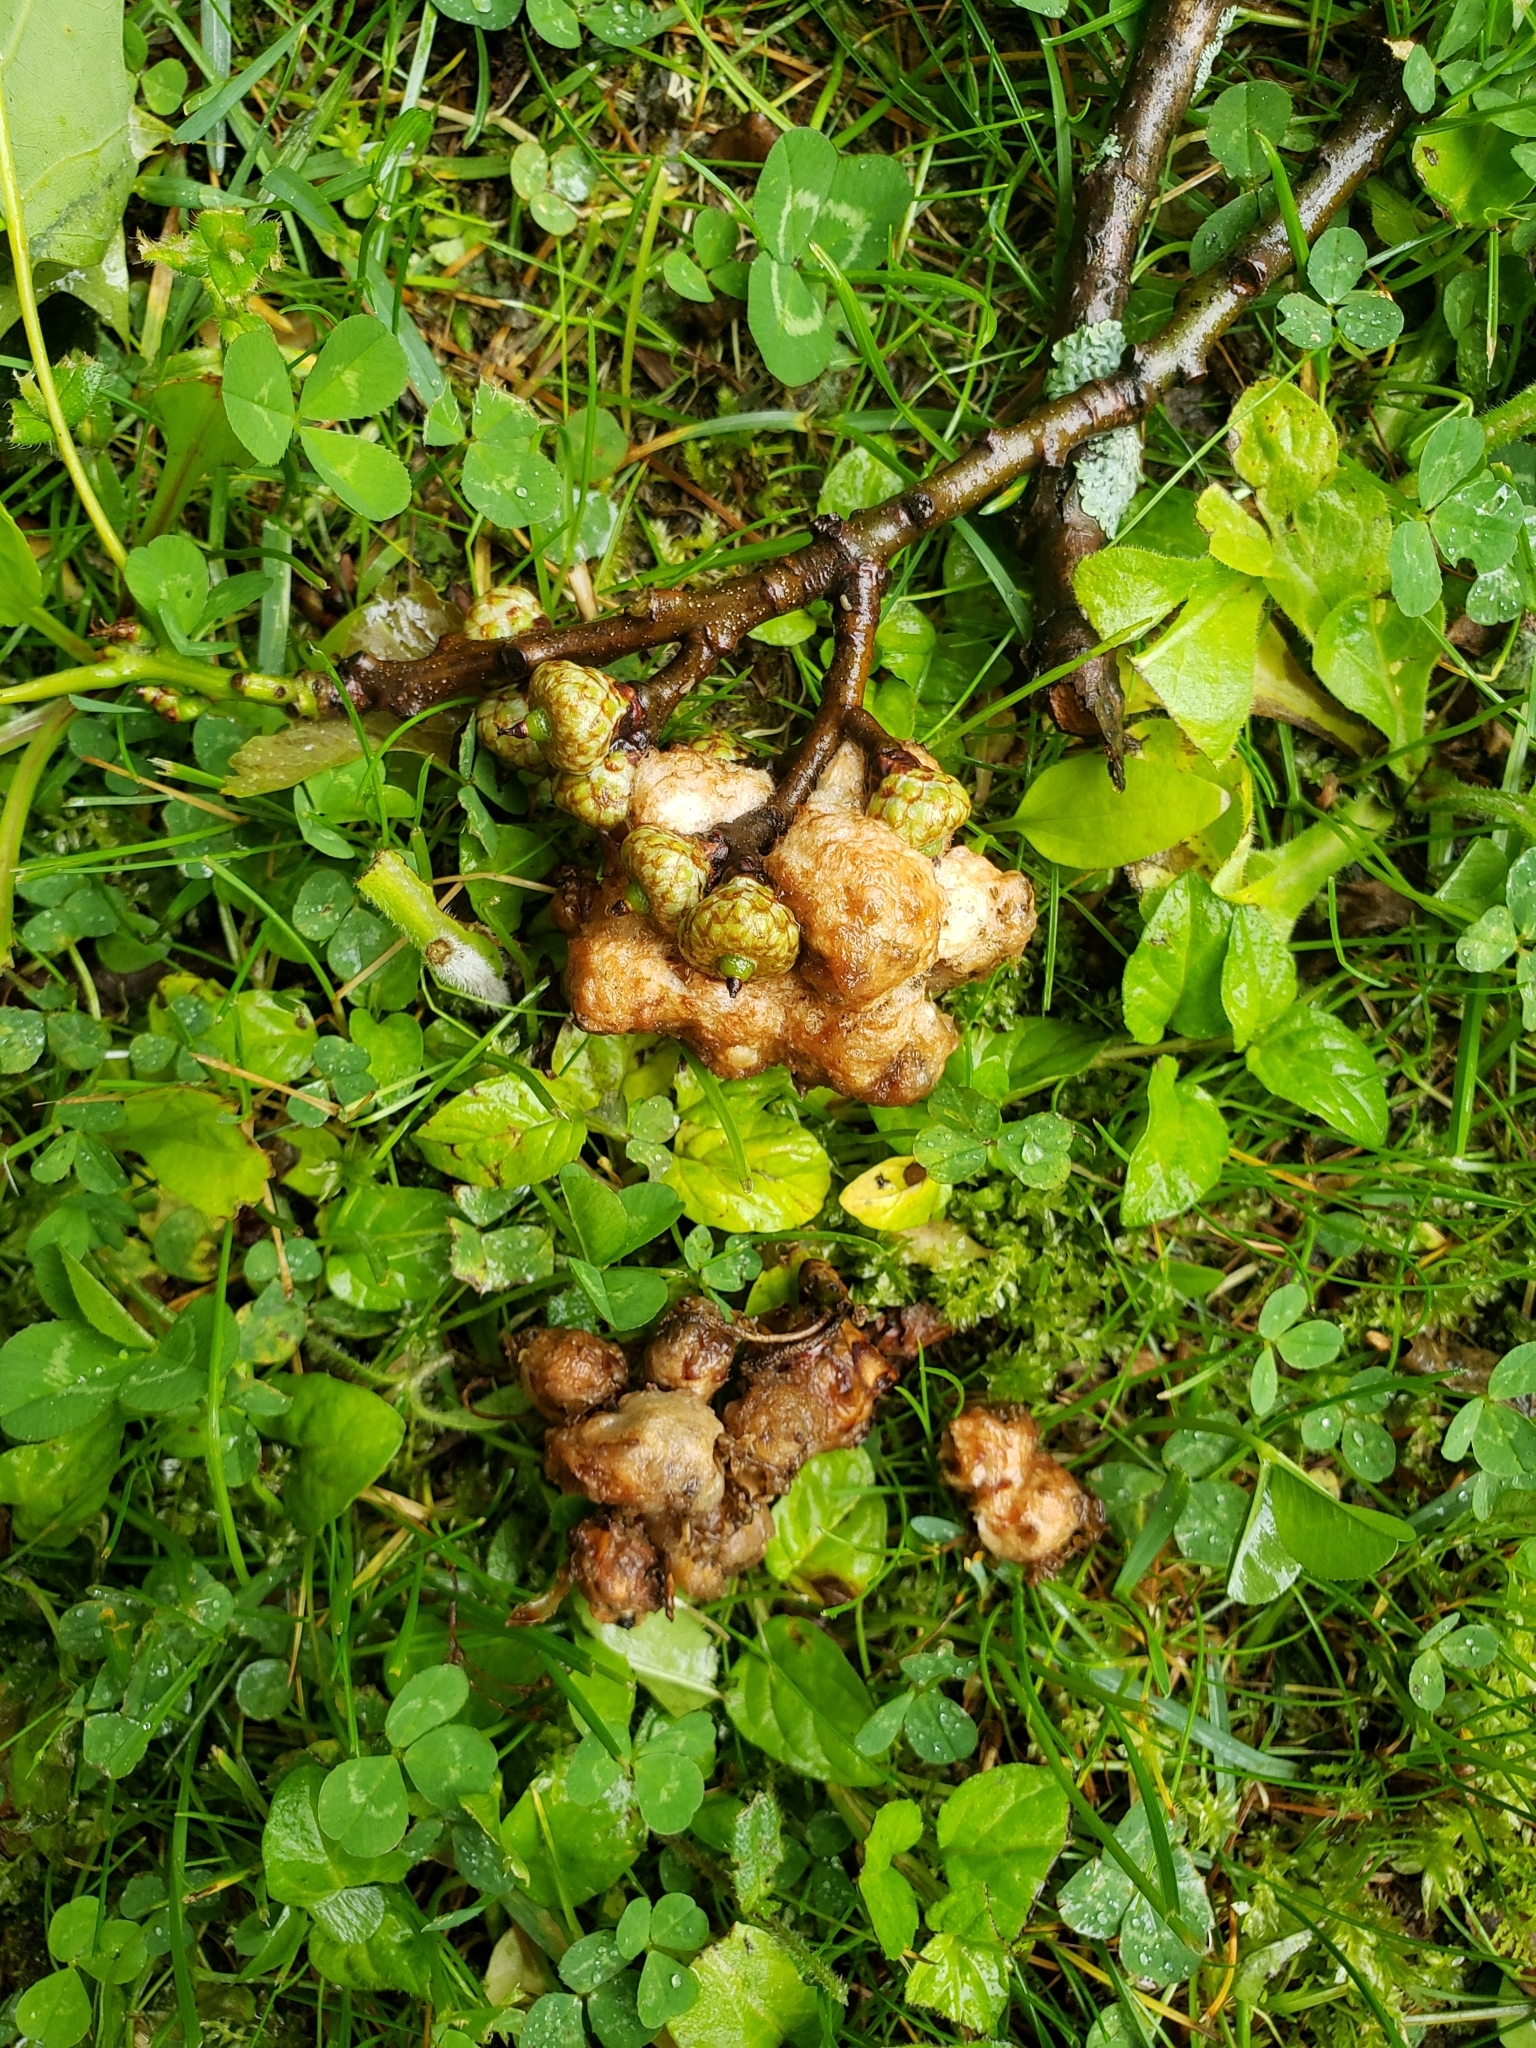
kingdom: Animalia
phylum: Arthropoda
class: Insecta
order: Hymenoptera
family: Cynipidae
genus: Callirhytis
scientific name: Callirhytis
